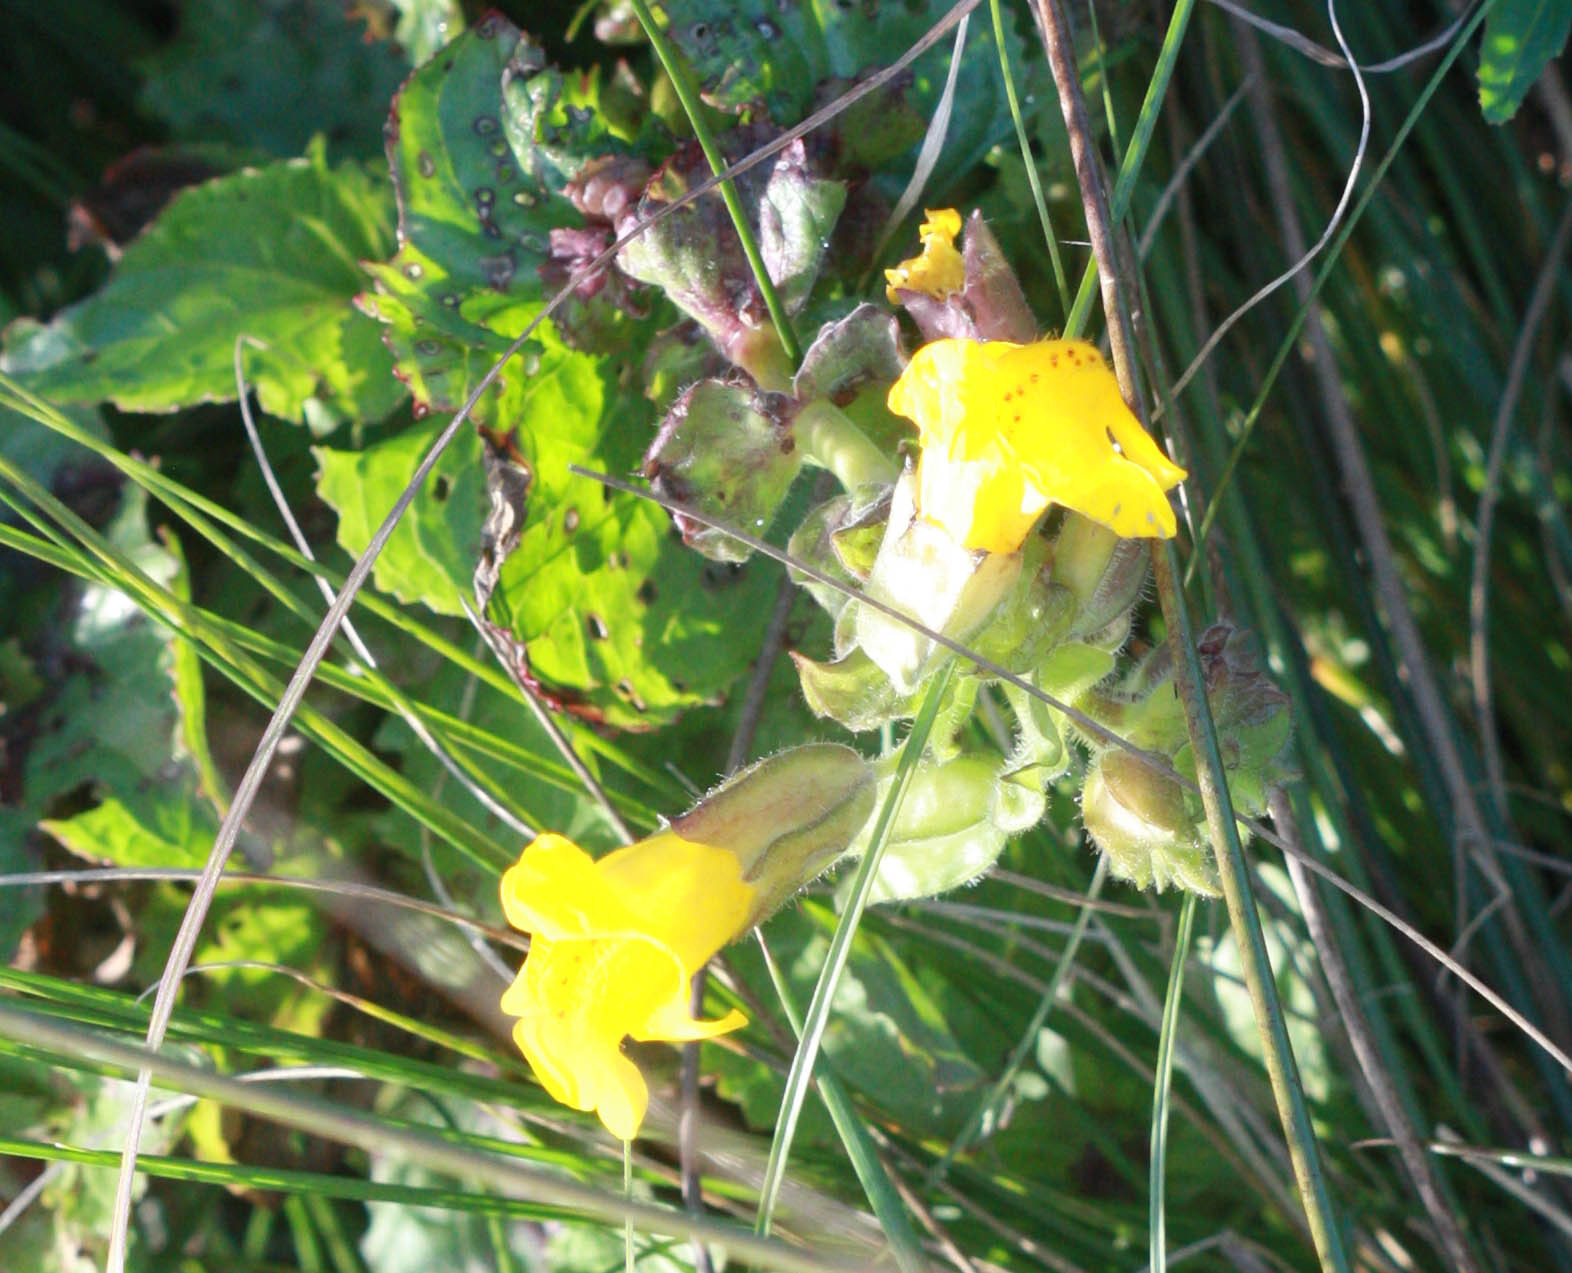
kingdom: Plantae
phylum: Tracheophyta
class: Magnoliopsida
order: Lamiales
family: Phrymaceae
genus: Erythranthe
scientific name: Erythranthe guttata
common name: Monkeyflower
